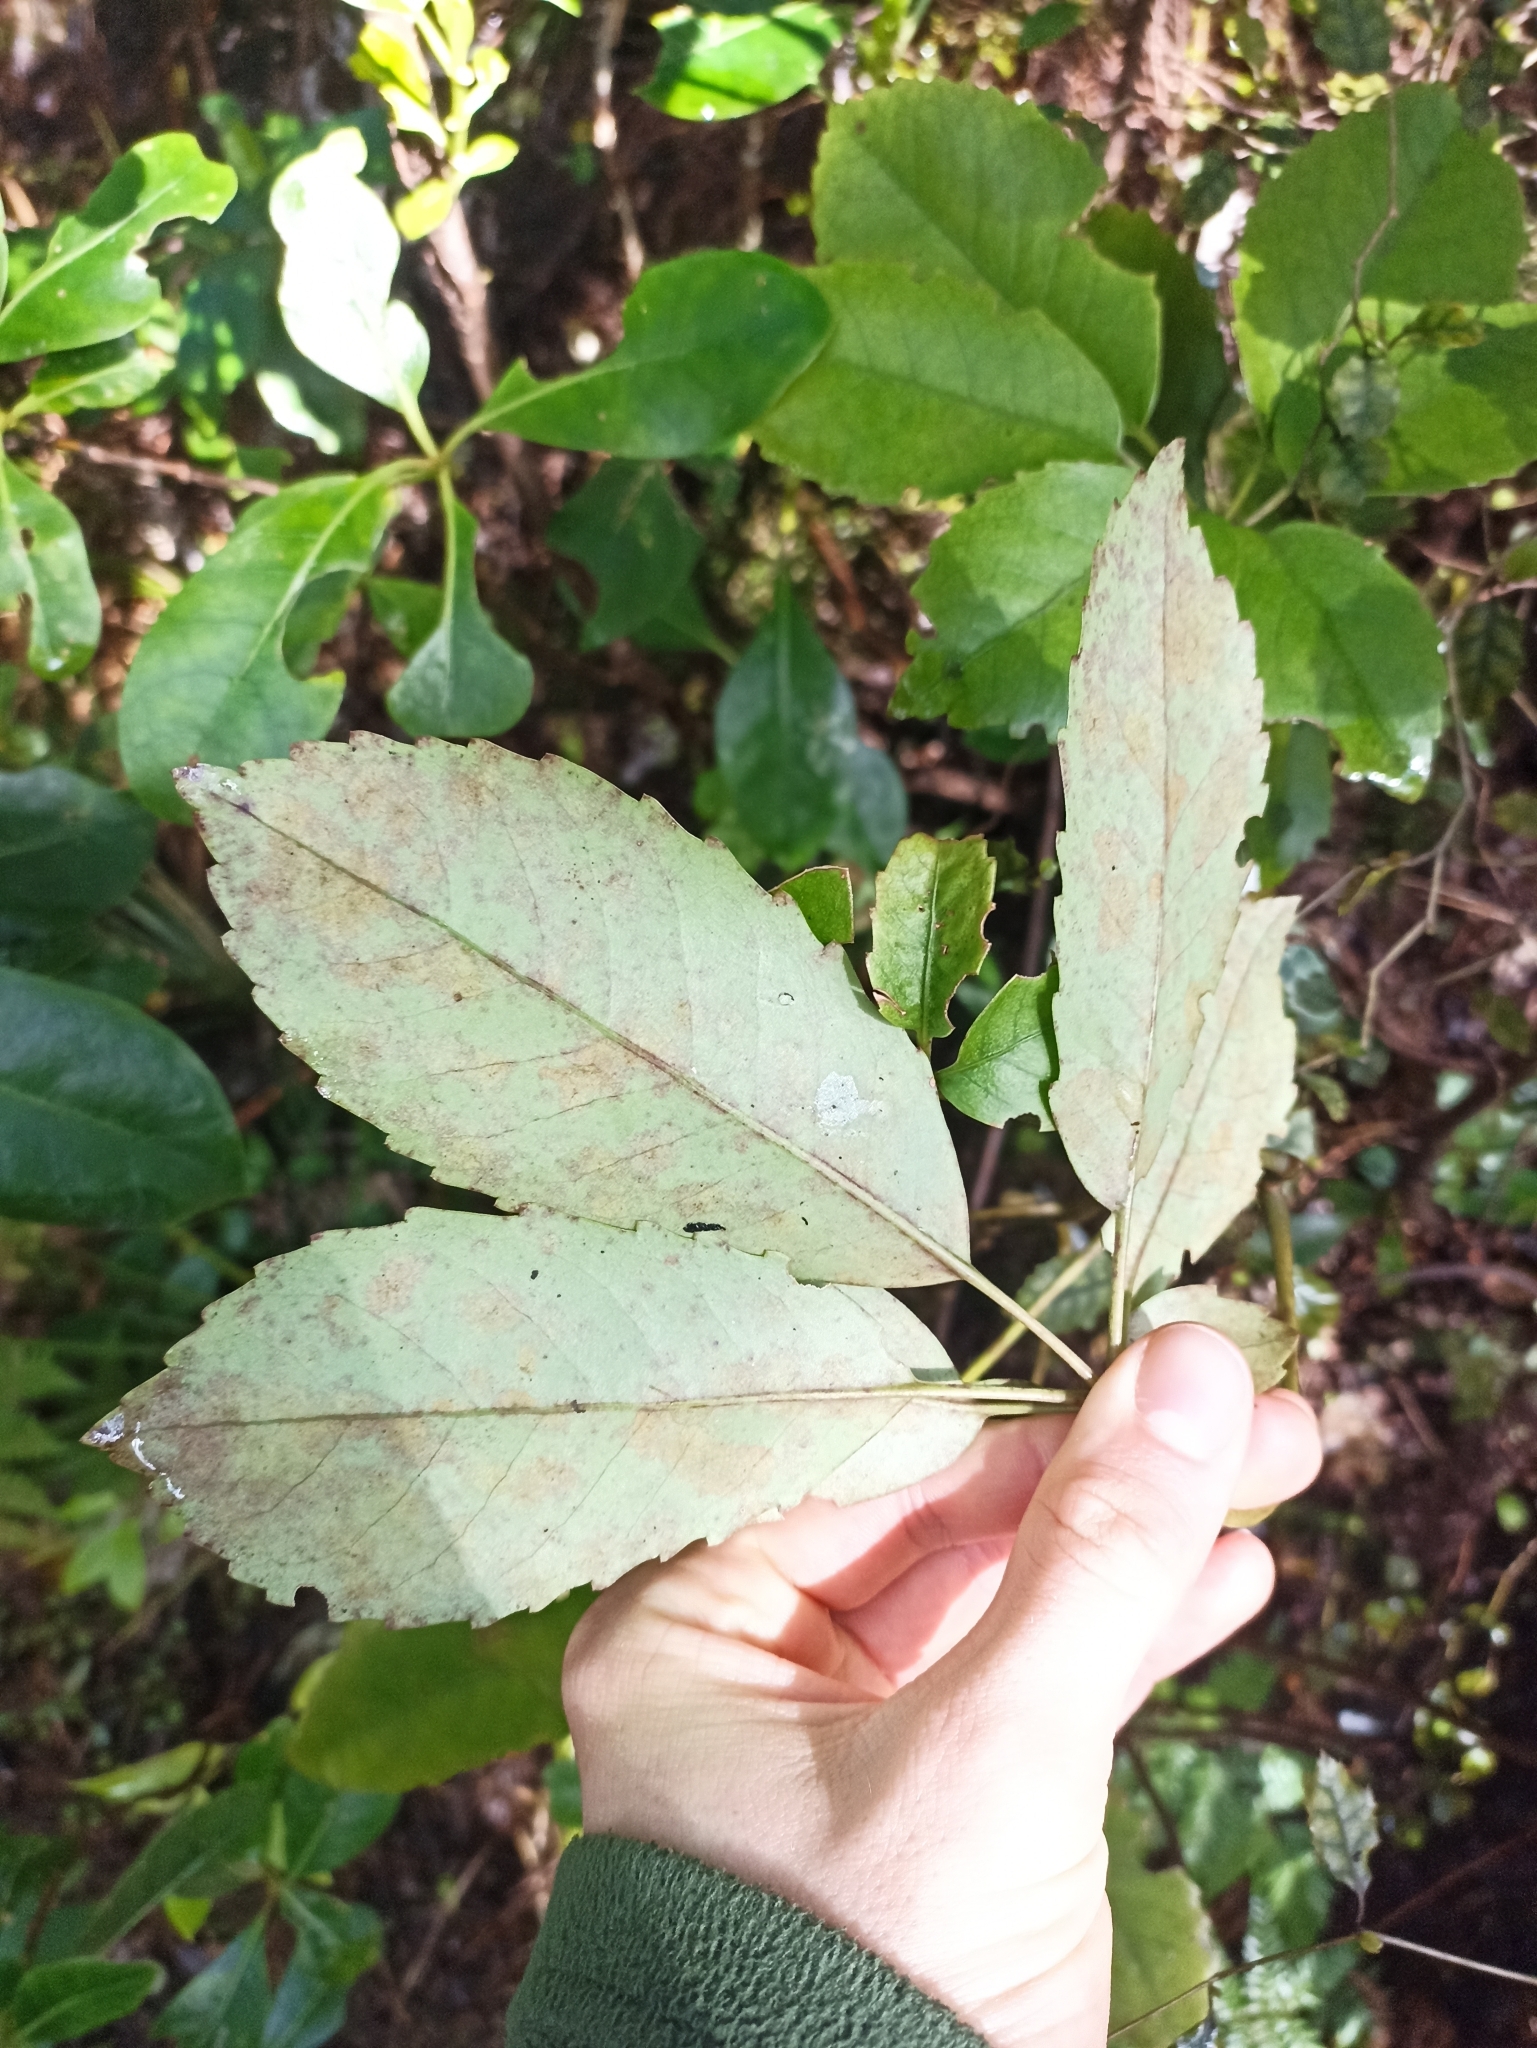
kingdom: Plantae
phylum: Tracheophyta
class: Magnoliopsida
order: Apiales
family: Araliaceae
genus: Neopanax
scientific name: Neopanax arboreus
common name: Five-fingers
